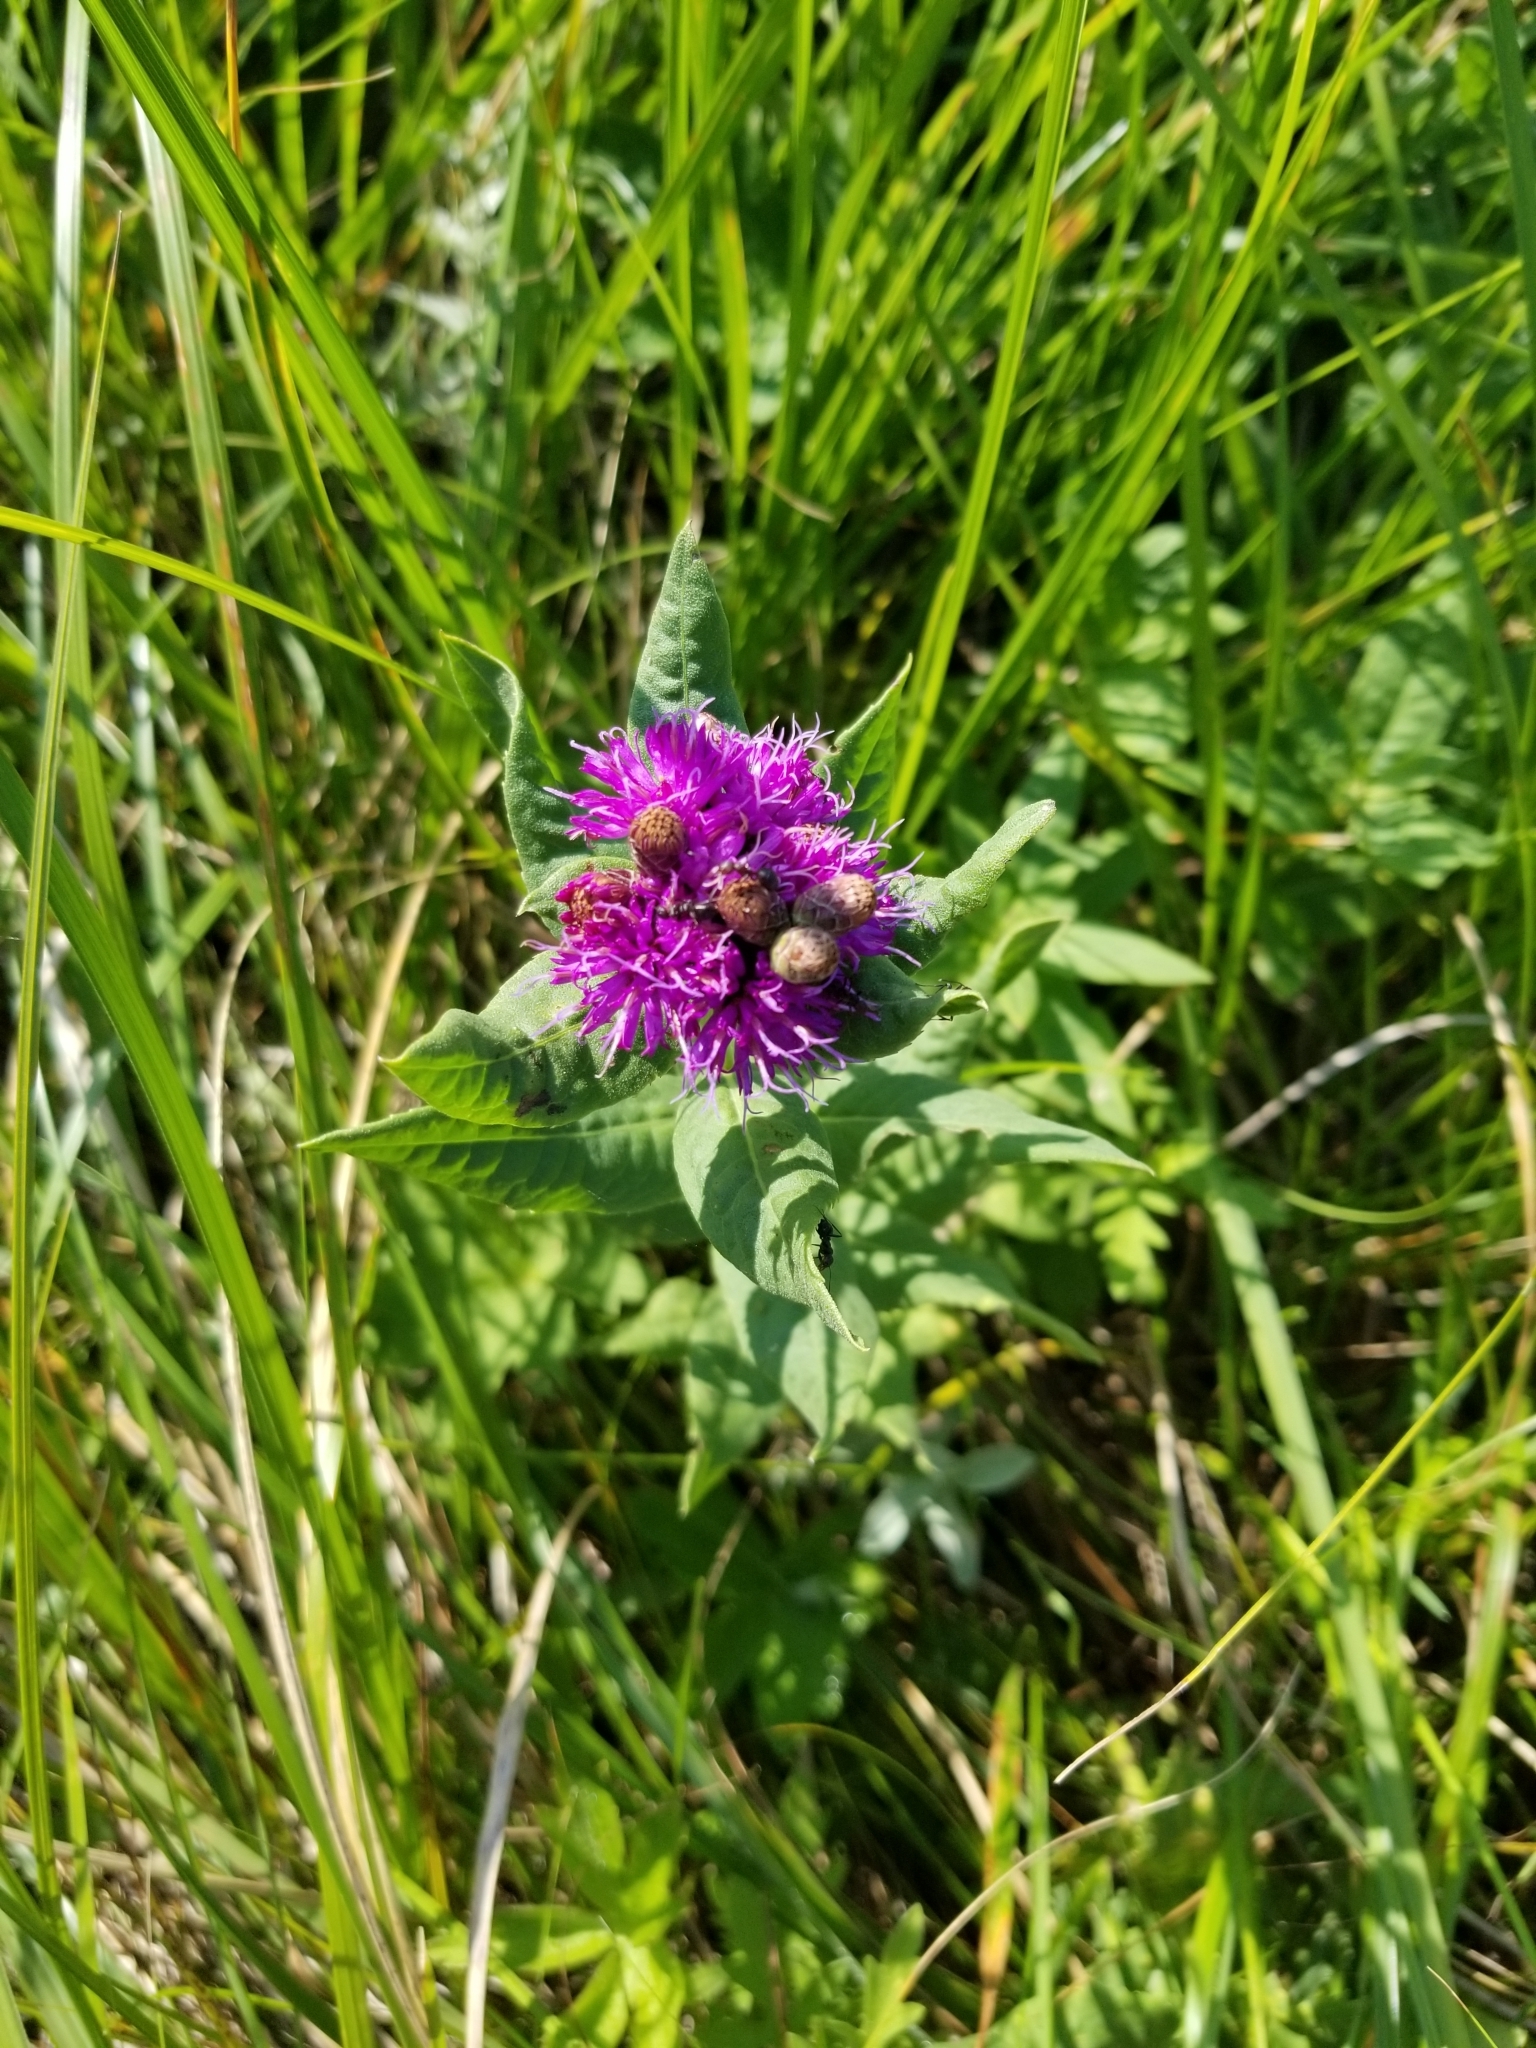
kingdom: Plantae
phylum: Tracheophyta
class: Magnoliopsida
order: Asterales
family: Asteraceae
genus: Vernonia
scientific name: Vernonia fasciculata
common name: Fascicled ironweed
